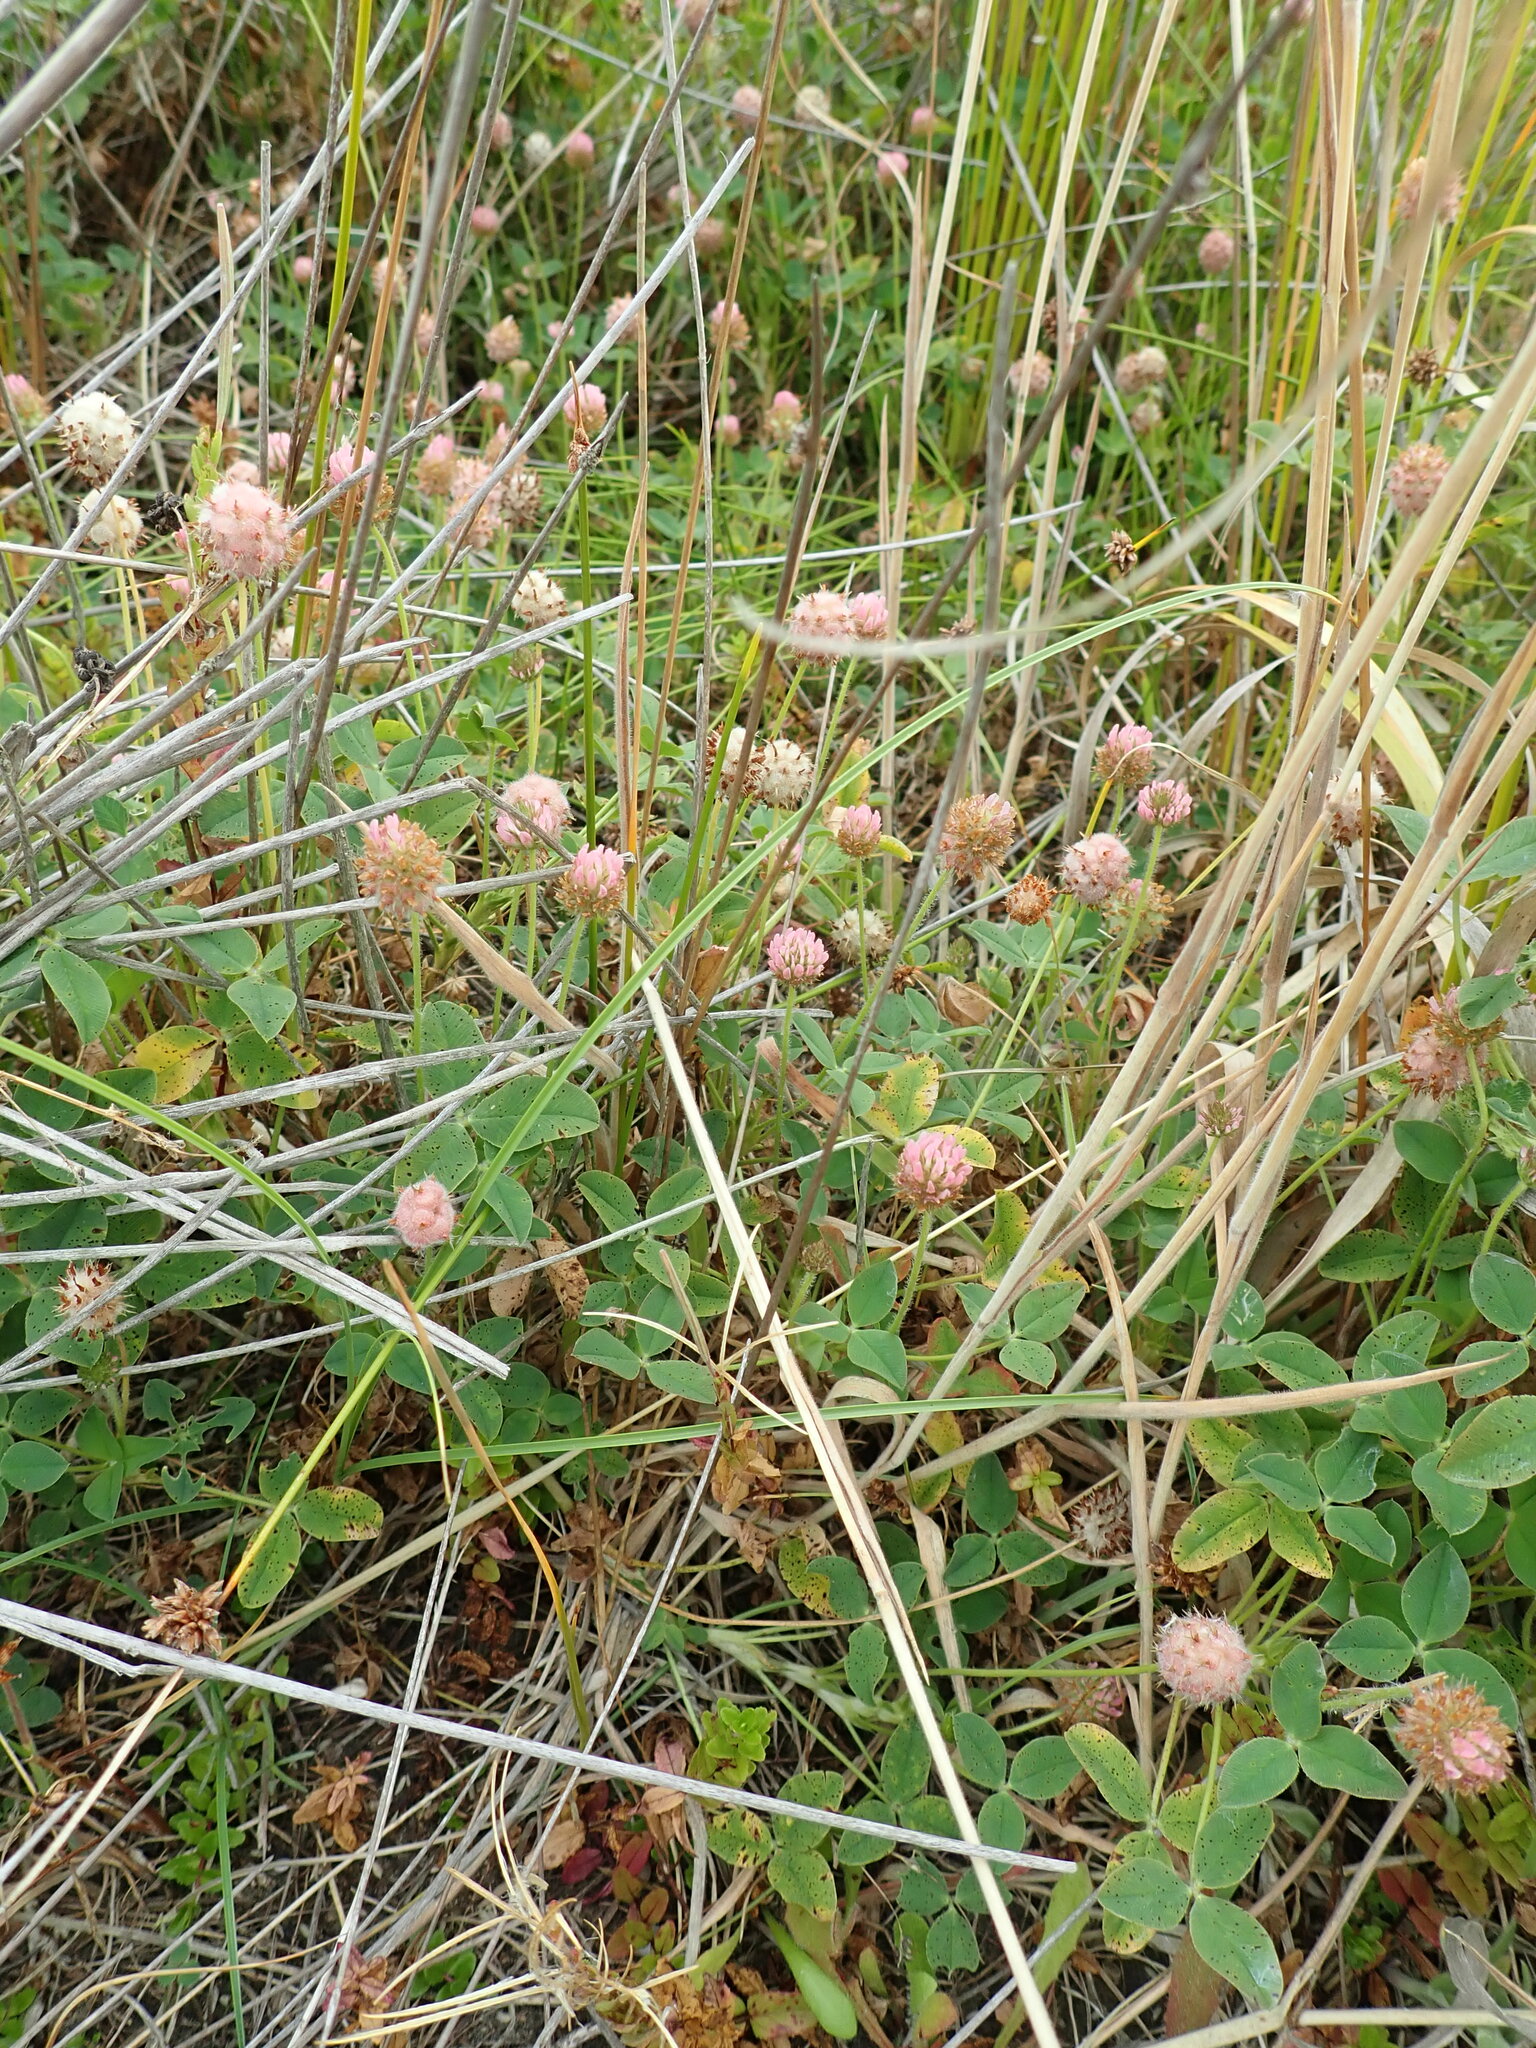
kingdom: Plantae
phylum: Tracheophyta
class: Magnoliopsida
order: Fabales
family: Fabaceae
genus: Trifolium
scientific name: Trifolium fragiferum
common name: Strawberry clover
